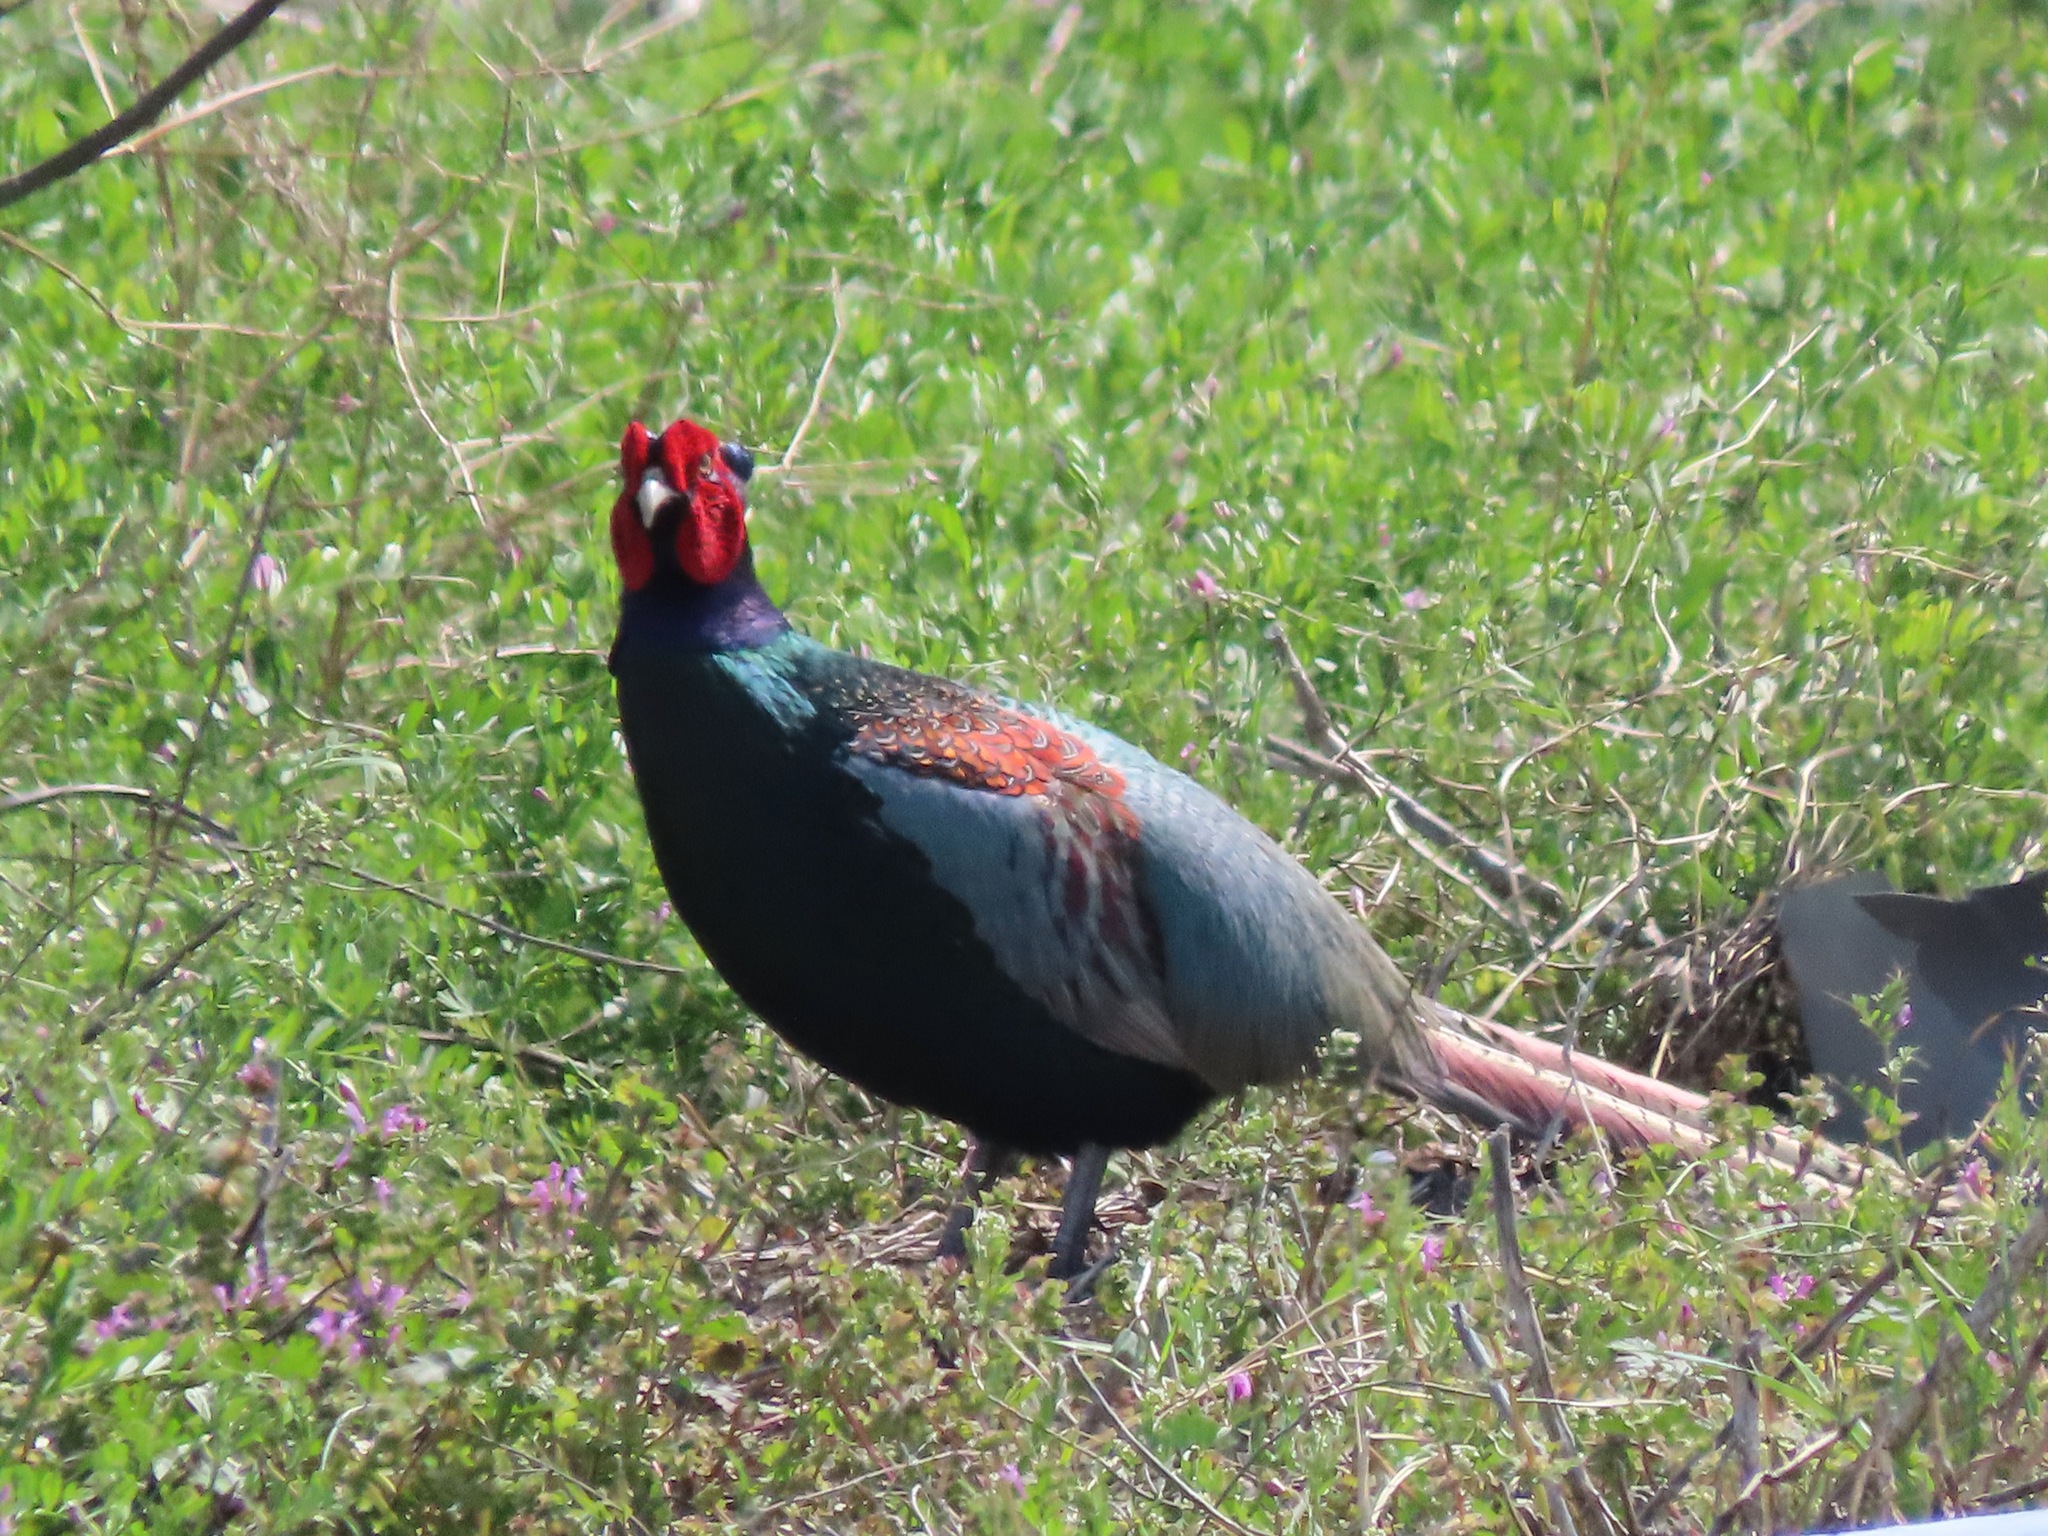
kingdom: Animalia
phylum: Chordata
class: Aves
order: Galliformes
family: Phasianidae
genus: Phasianus
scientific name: Phasianus versicolor
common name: Green pheasant
